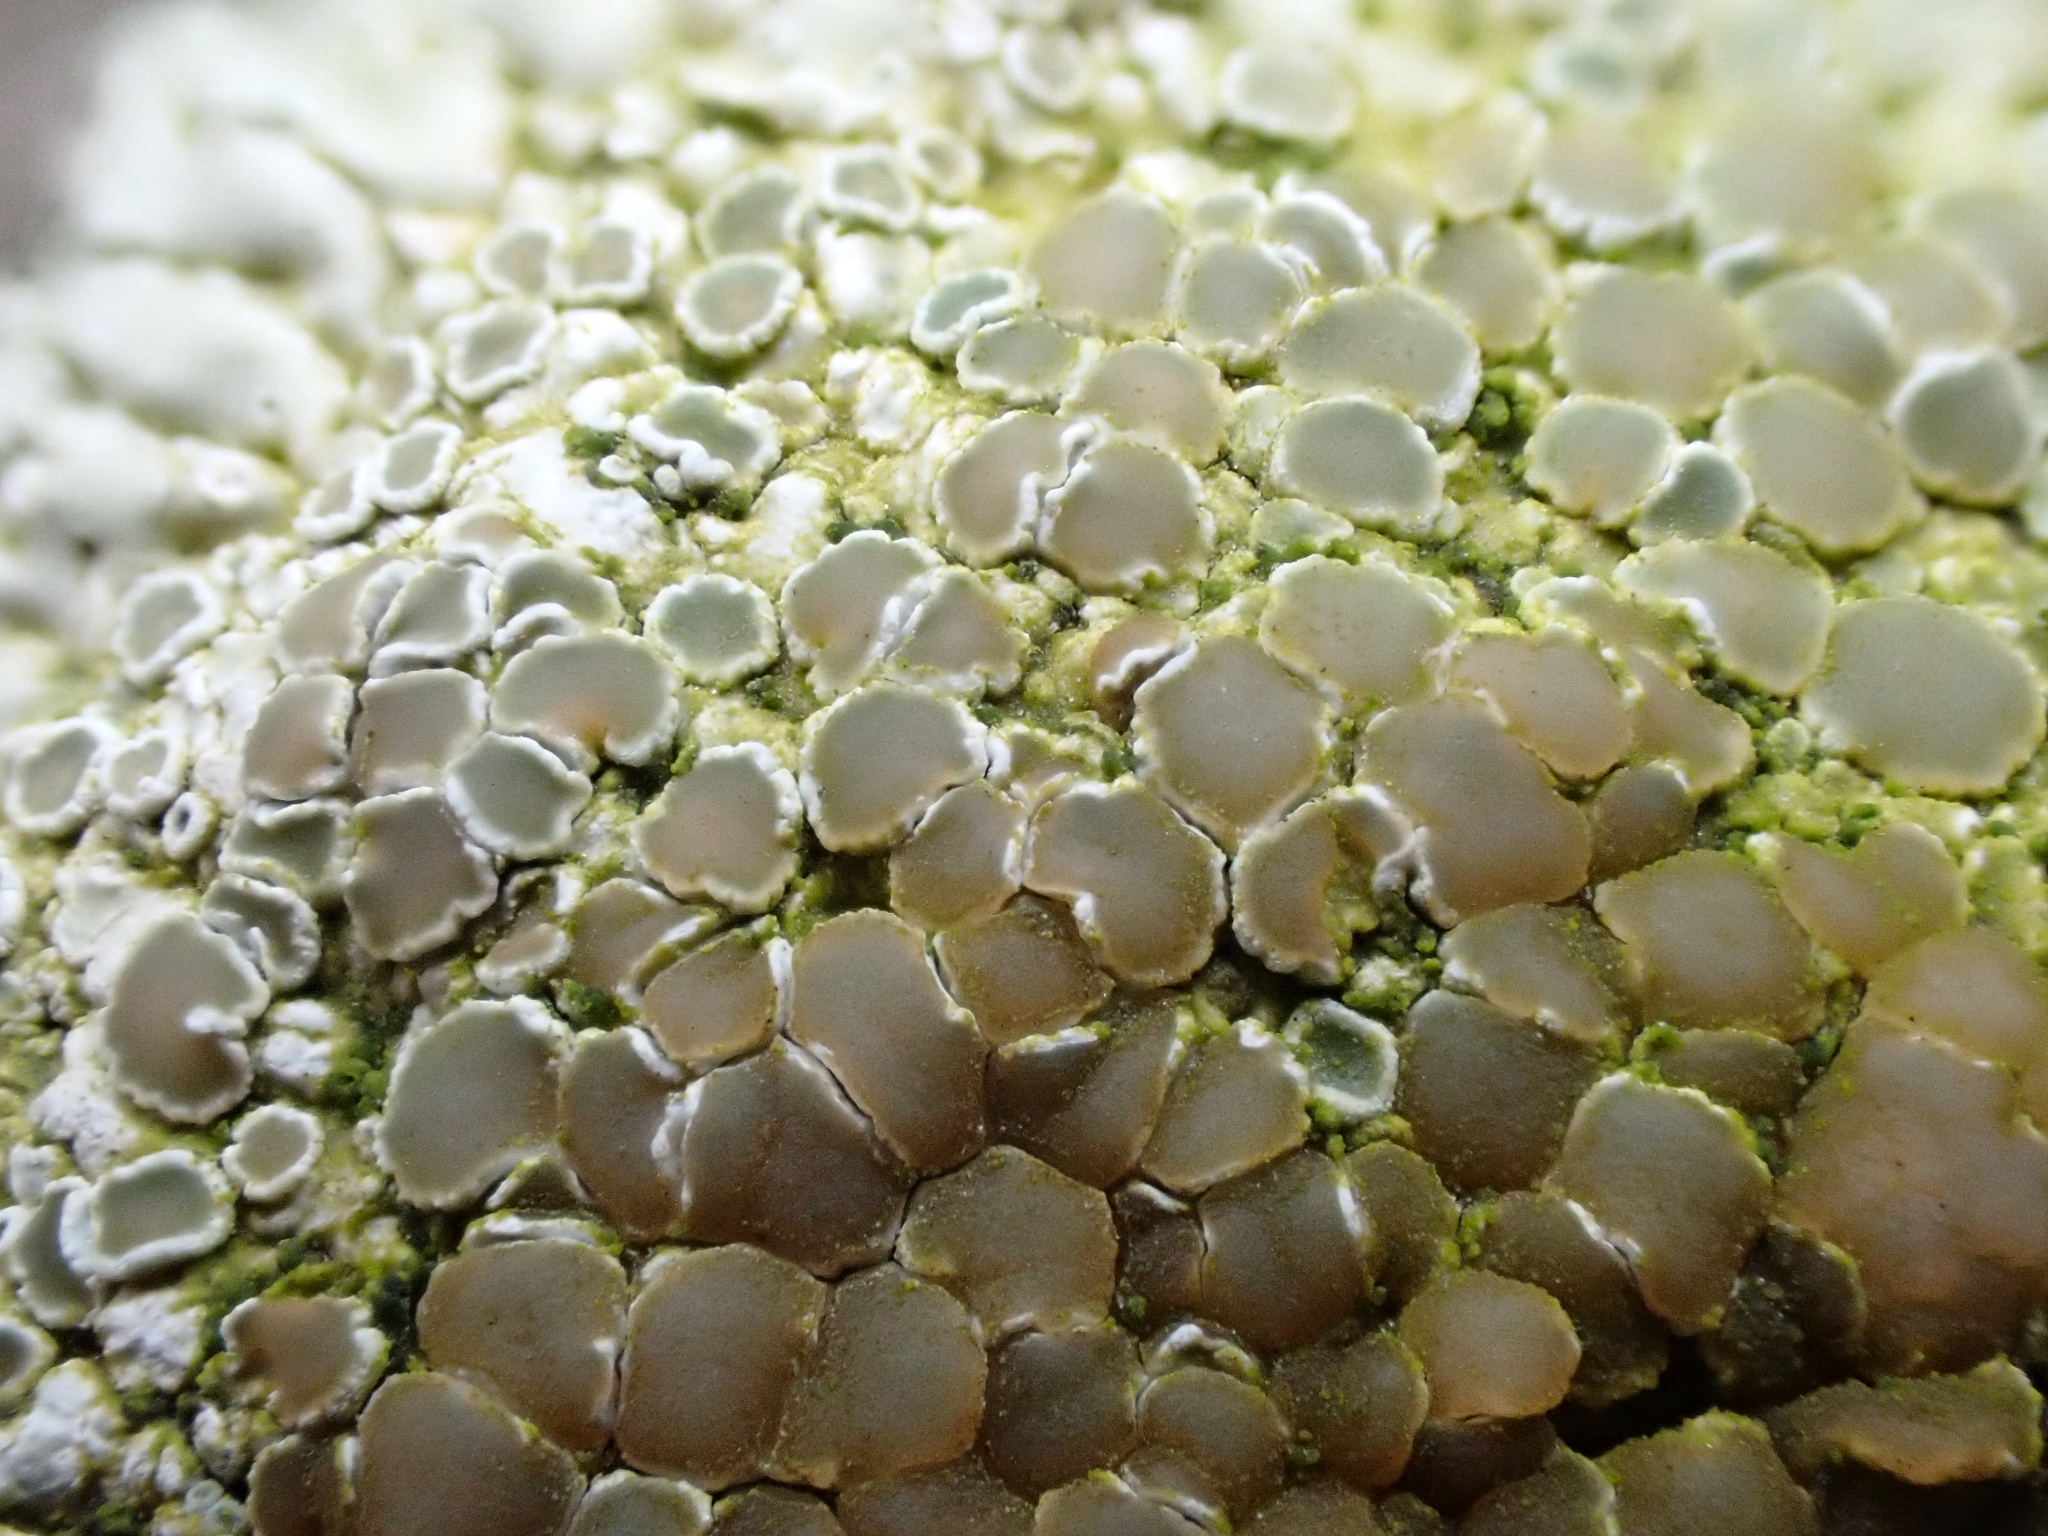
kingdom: Fungi
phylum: Ascomycota
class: Lecanoromycetes
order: Lecanorales
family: Lecanoraceae
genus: Protoparmeliopsis
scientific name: Protoparmeliopsis muralis
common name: Stonewall rim lichen
